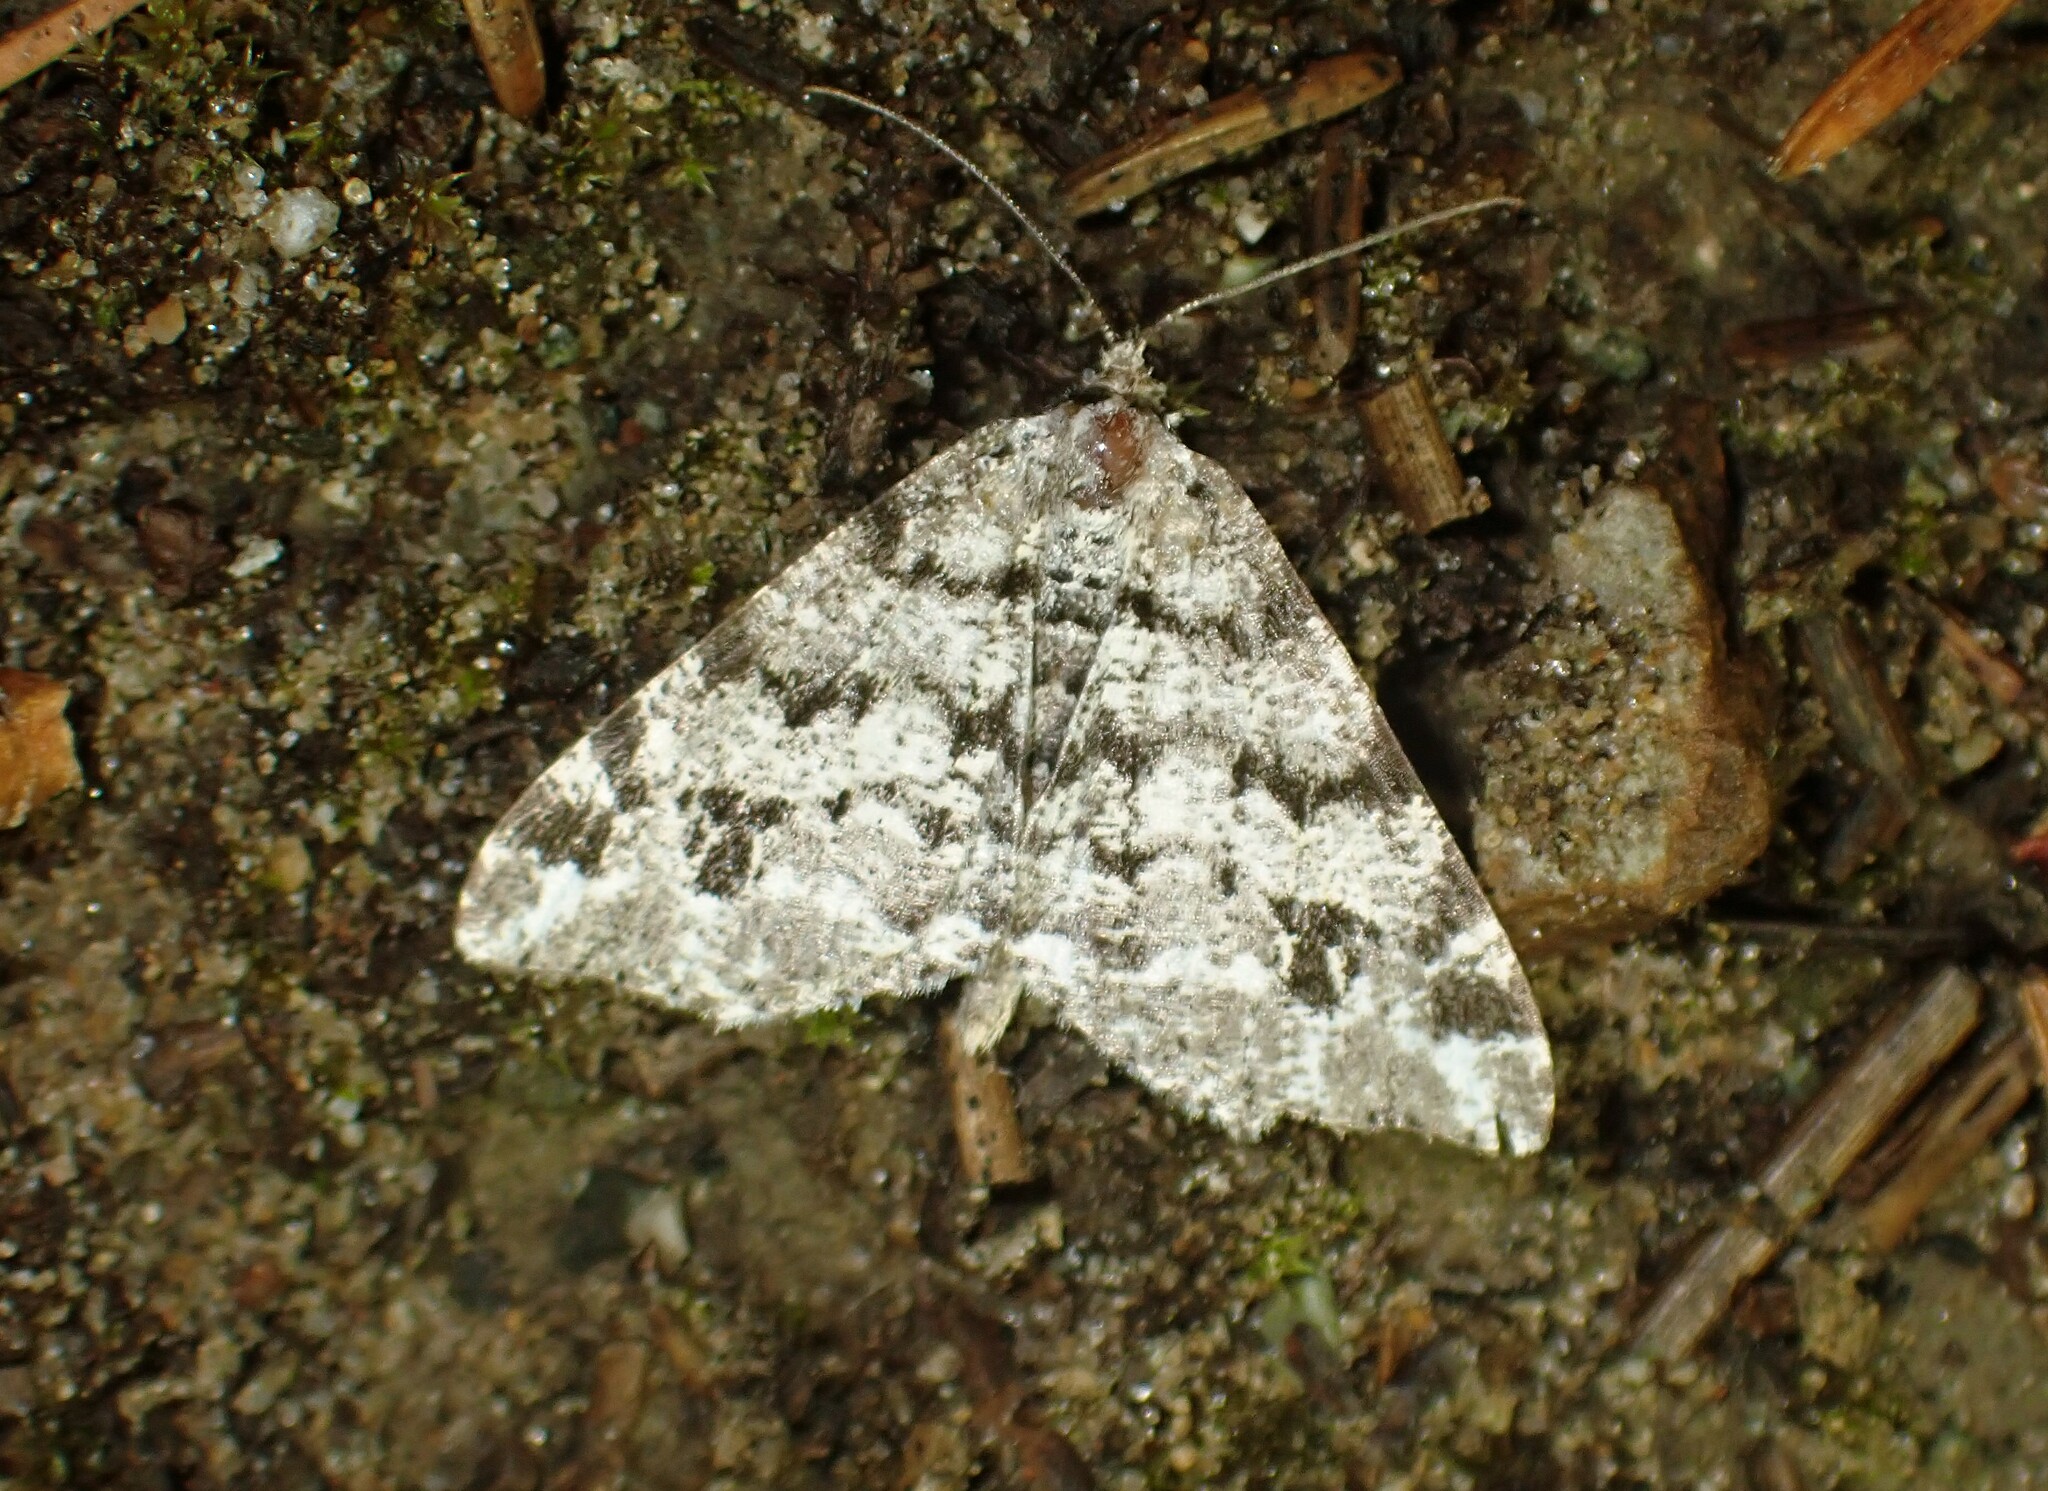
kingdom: Animalia
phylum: Arthropoda
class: Insecta
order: Lepidoptera
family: Geometridae
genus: Macaria
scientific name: Macaria oweni
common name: Owen's angle
